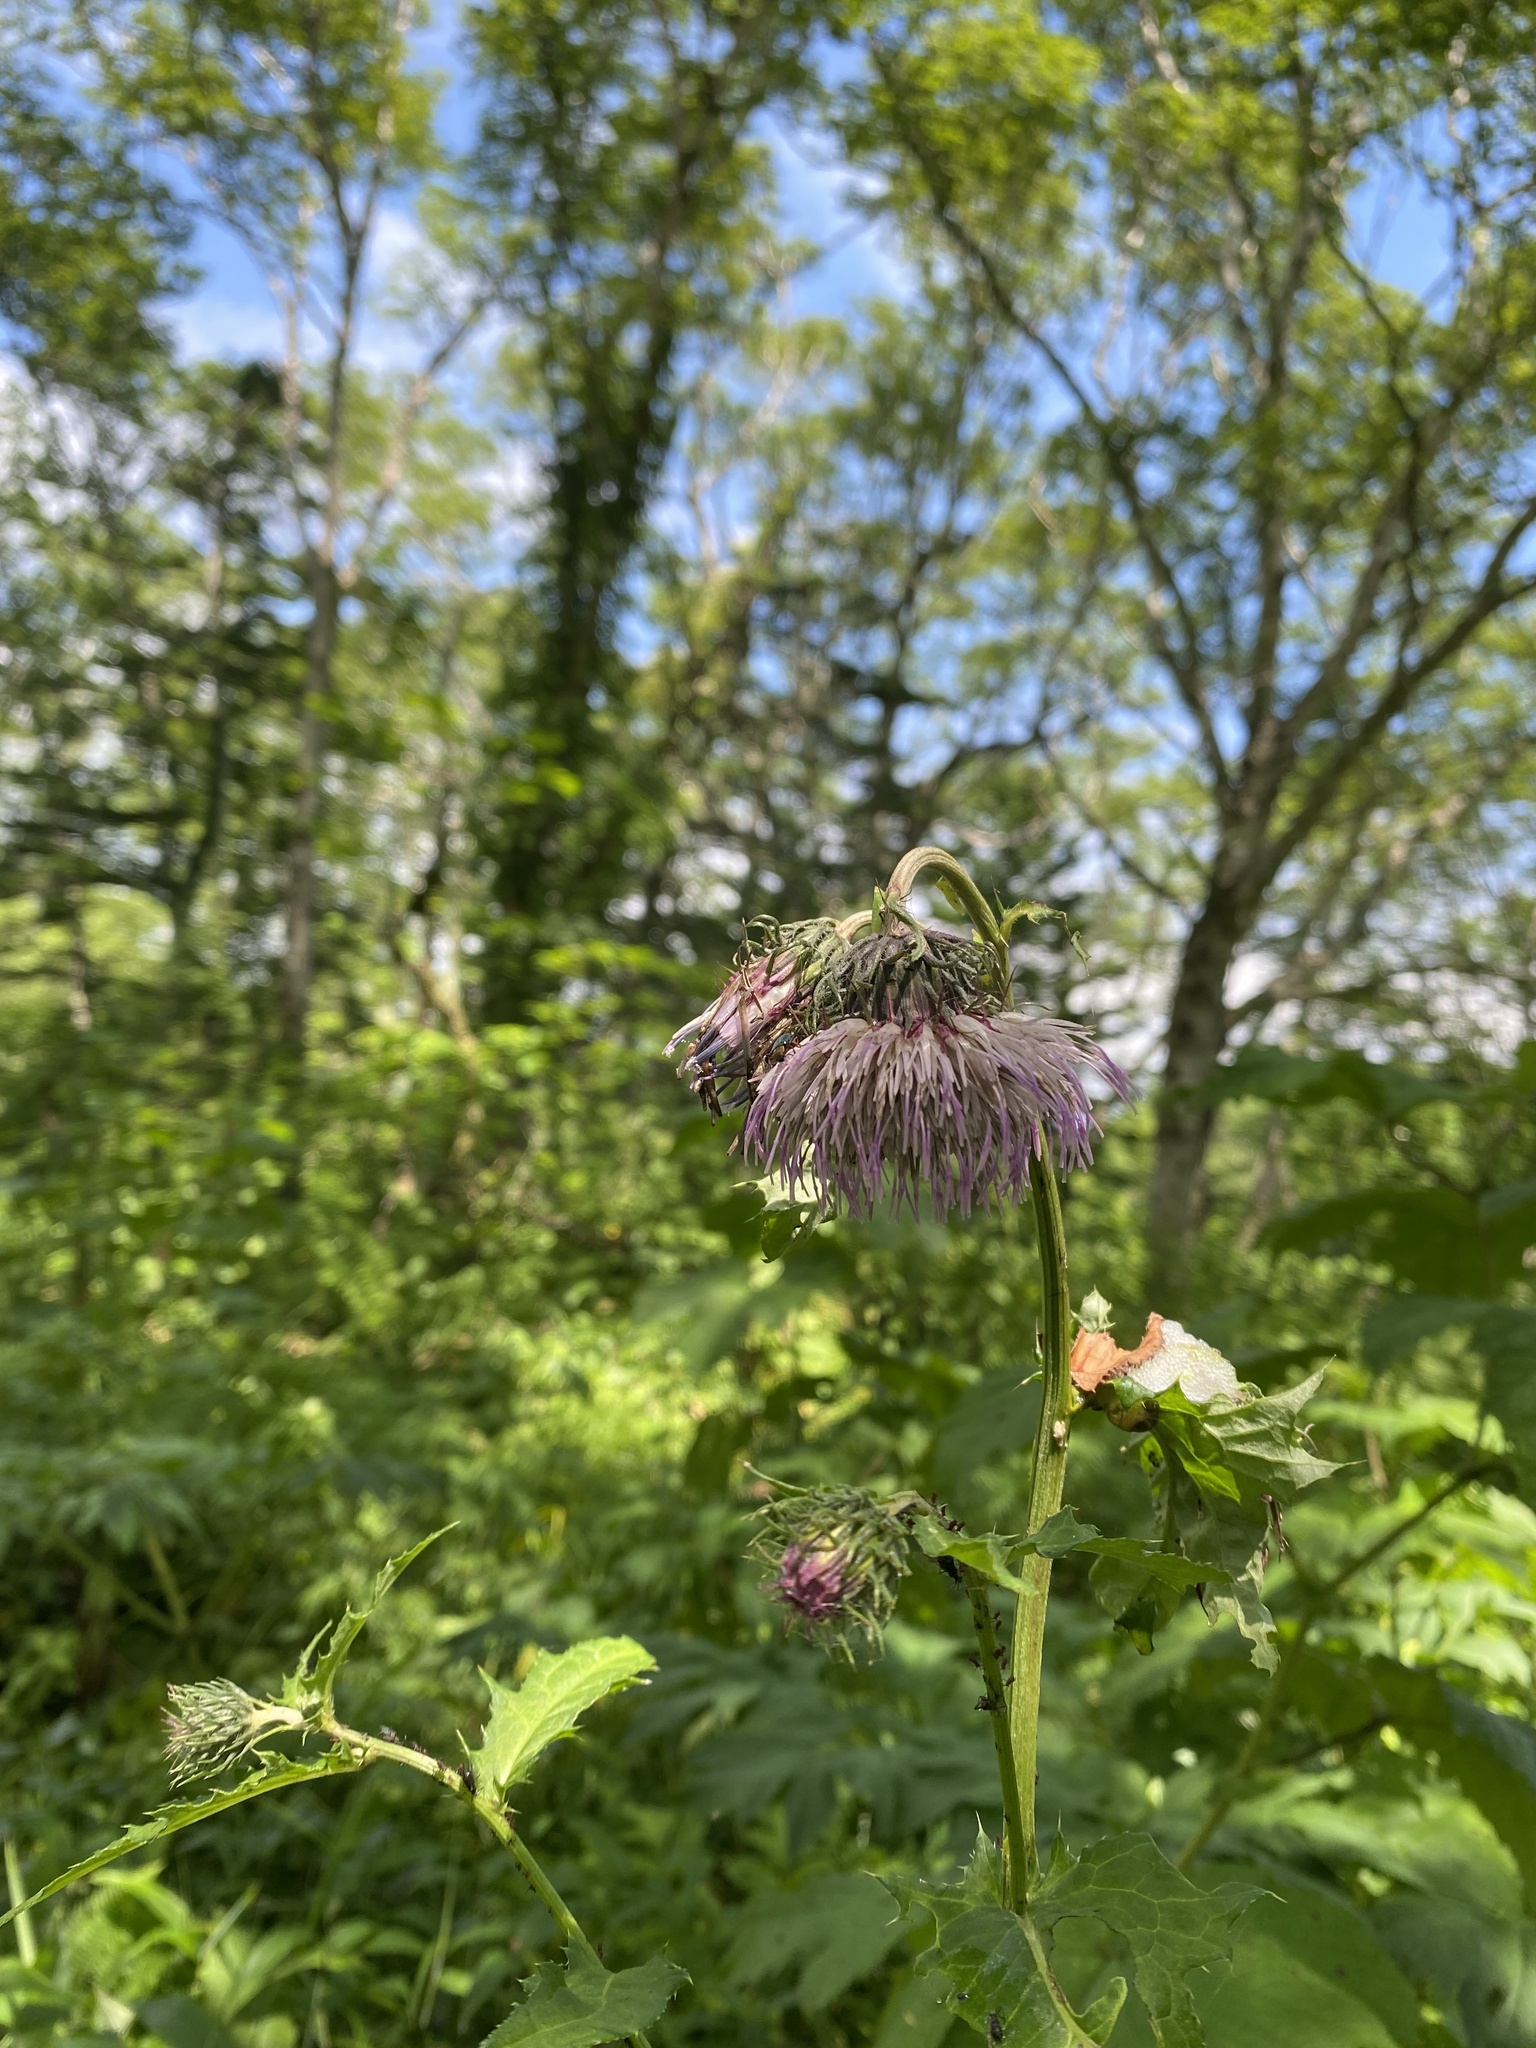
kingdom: Plantae
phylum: Tracheophyta
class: Magnoliopsida
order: Asterales
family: Asteraceae
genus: Cirsium
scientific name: Cirsium kamtschaticum
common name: Kamchatka thistle
